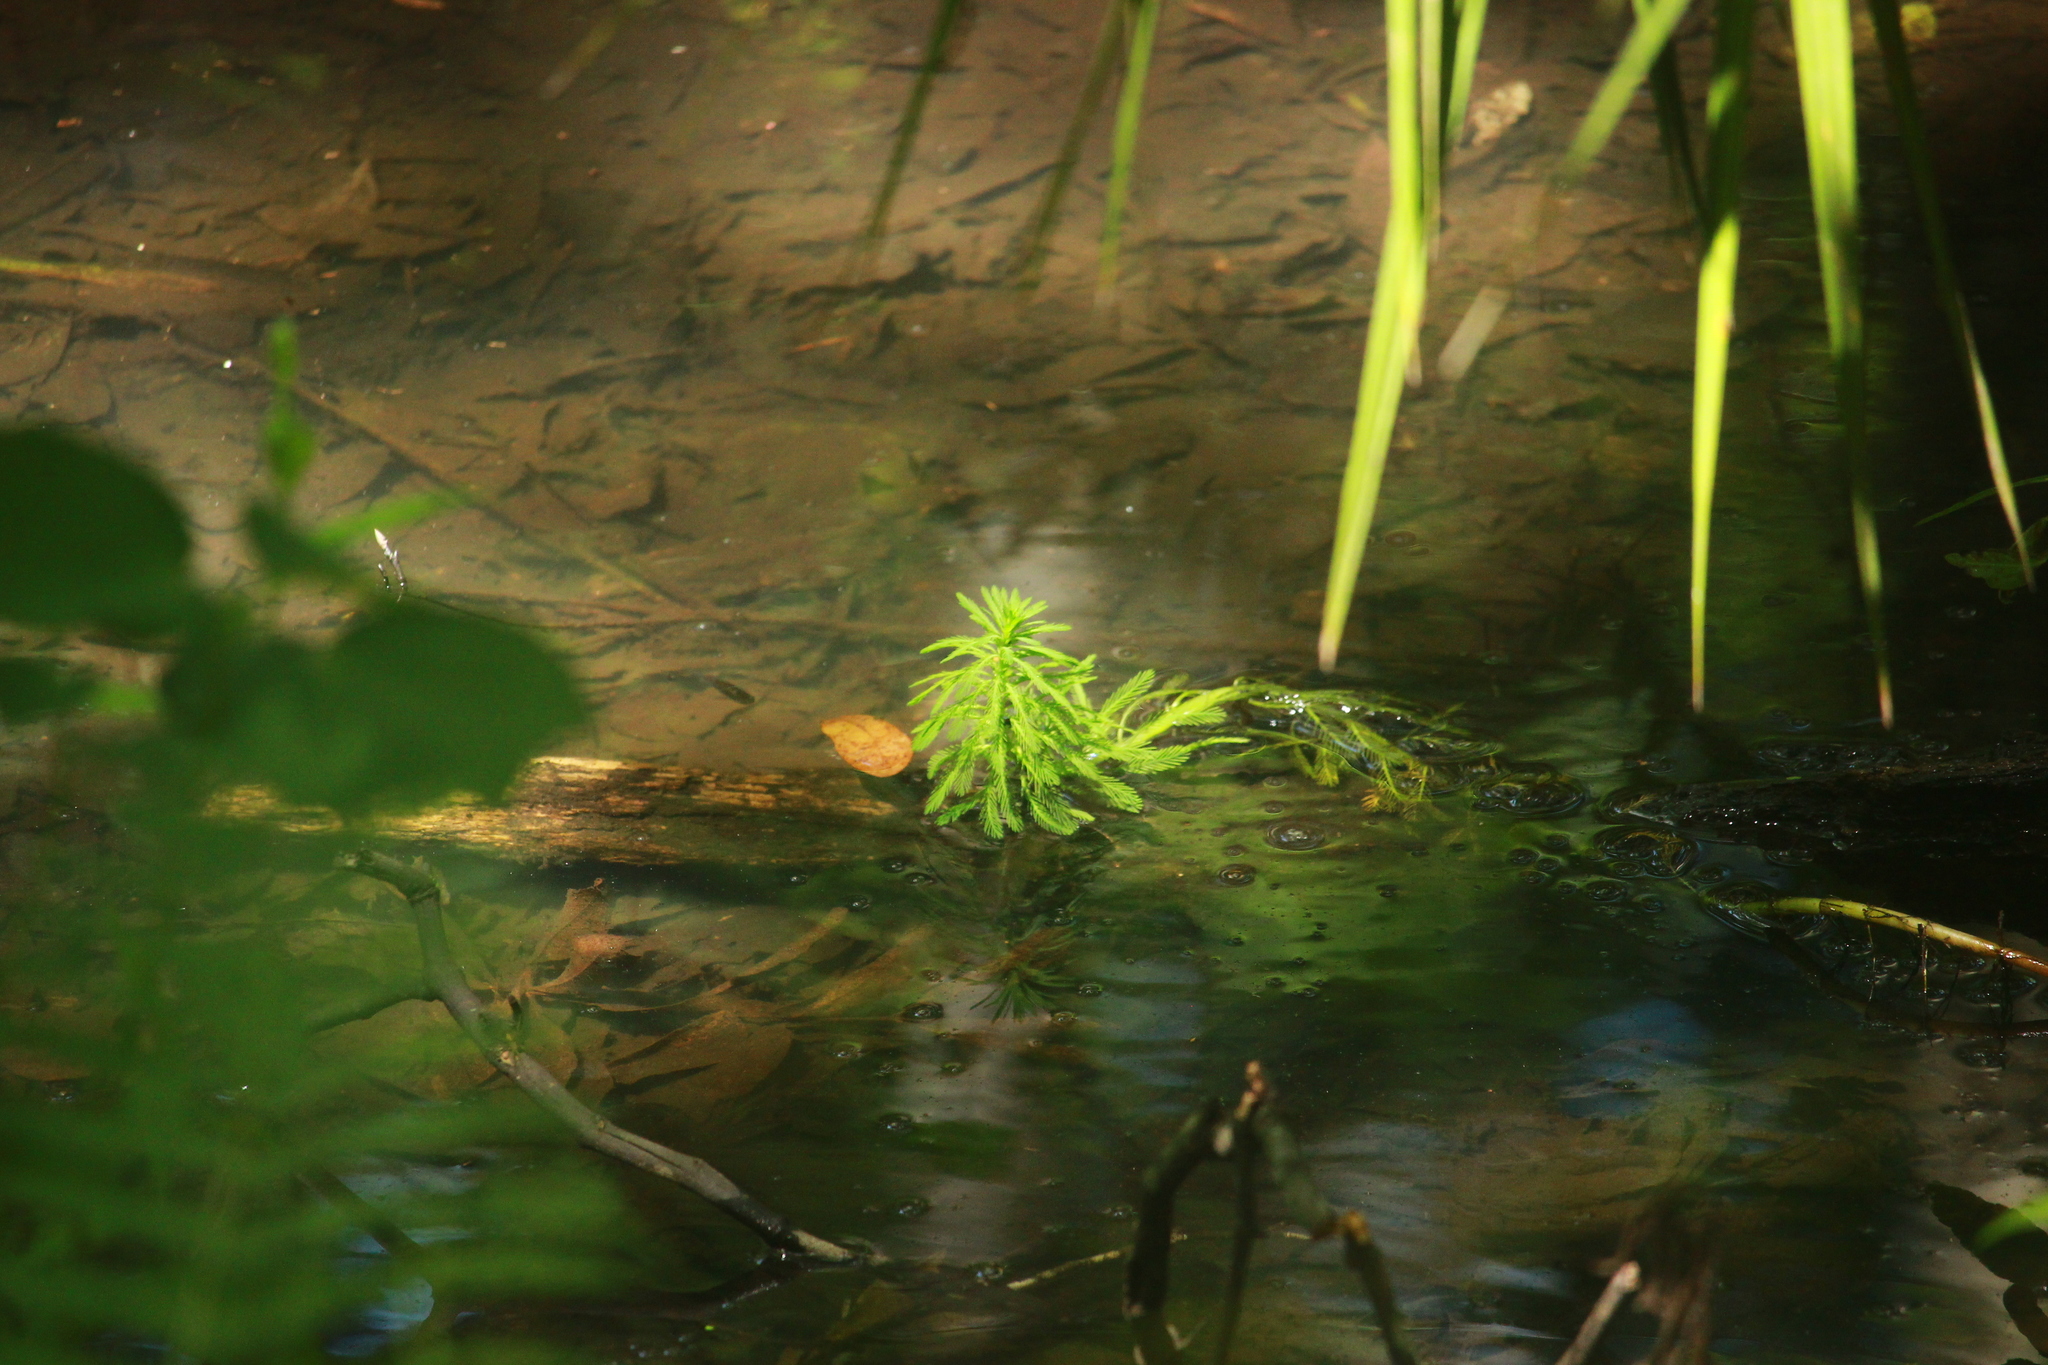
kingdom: Plantae
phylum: Tracheophyta
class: Magnoliopsida
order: Saxifragales
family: Haloragaceae
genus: Myriophyllum
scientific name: Myriophyllum aquaticum
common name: Parrot's feather
